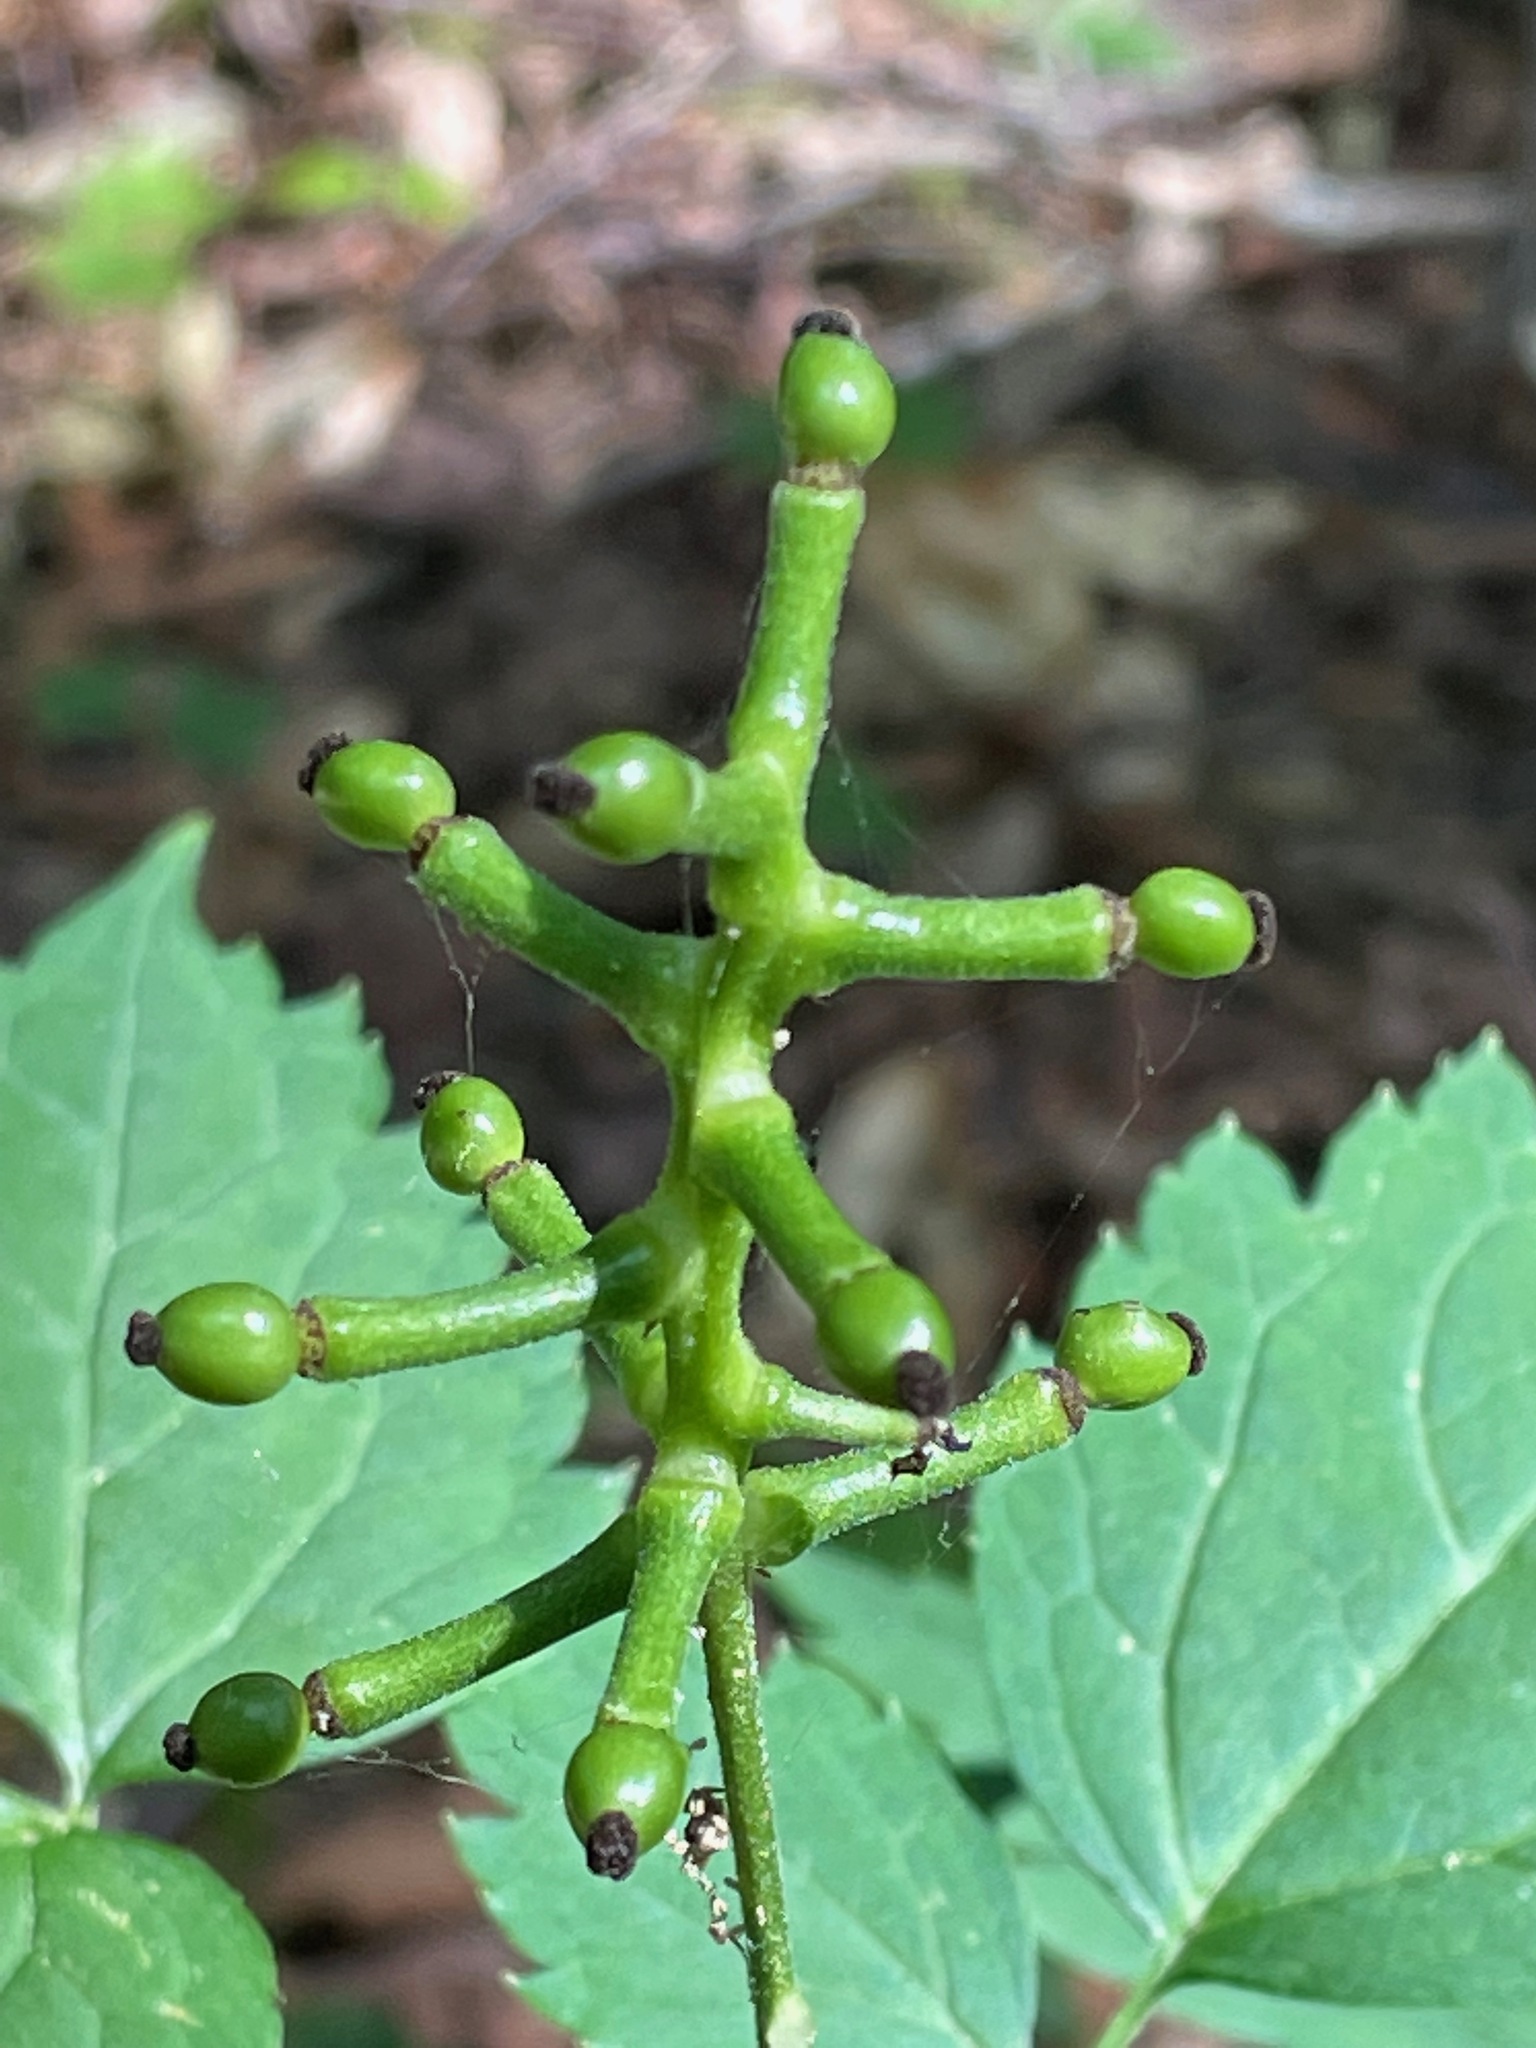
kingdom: Plantae
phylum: Tracheophyta
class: Magnoliopsida
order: Ranunculales
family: Ranunculaceae
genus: Actaea
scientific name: Actaea pachypoda
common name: Doll's-eyes
